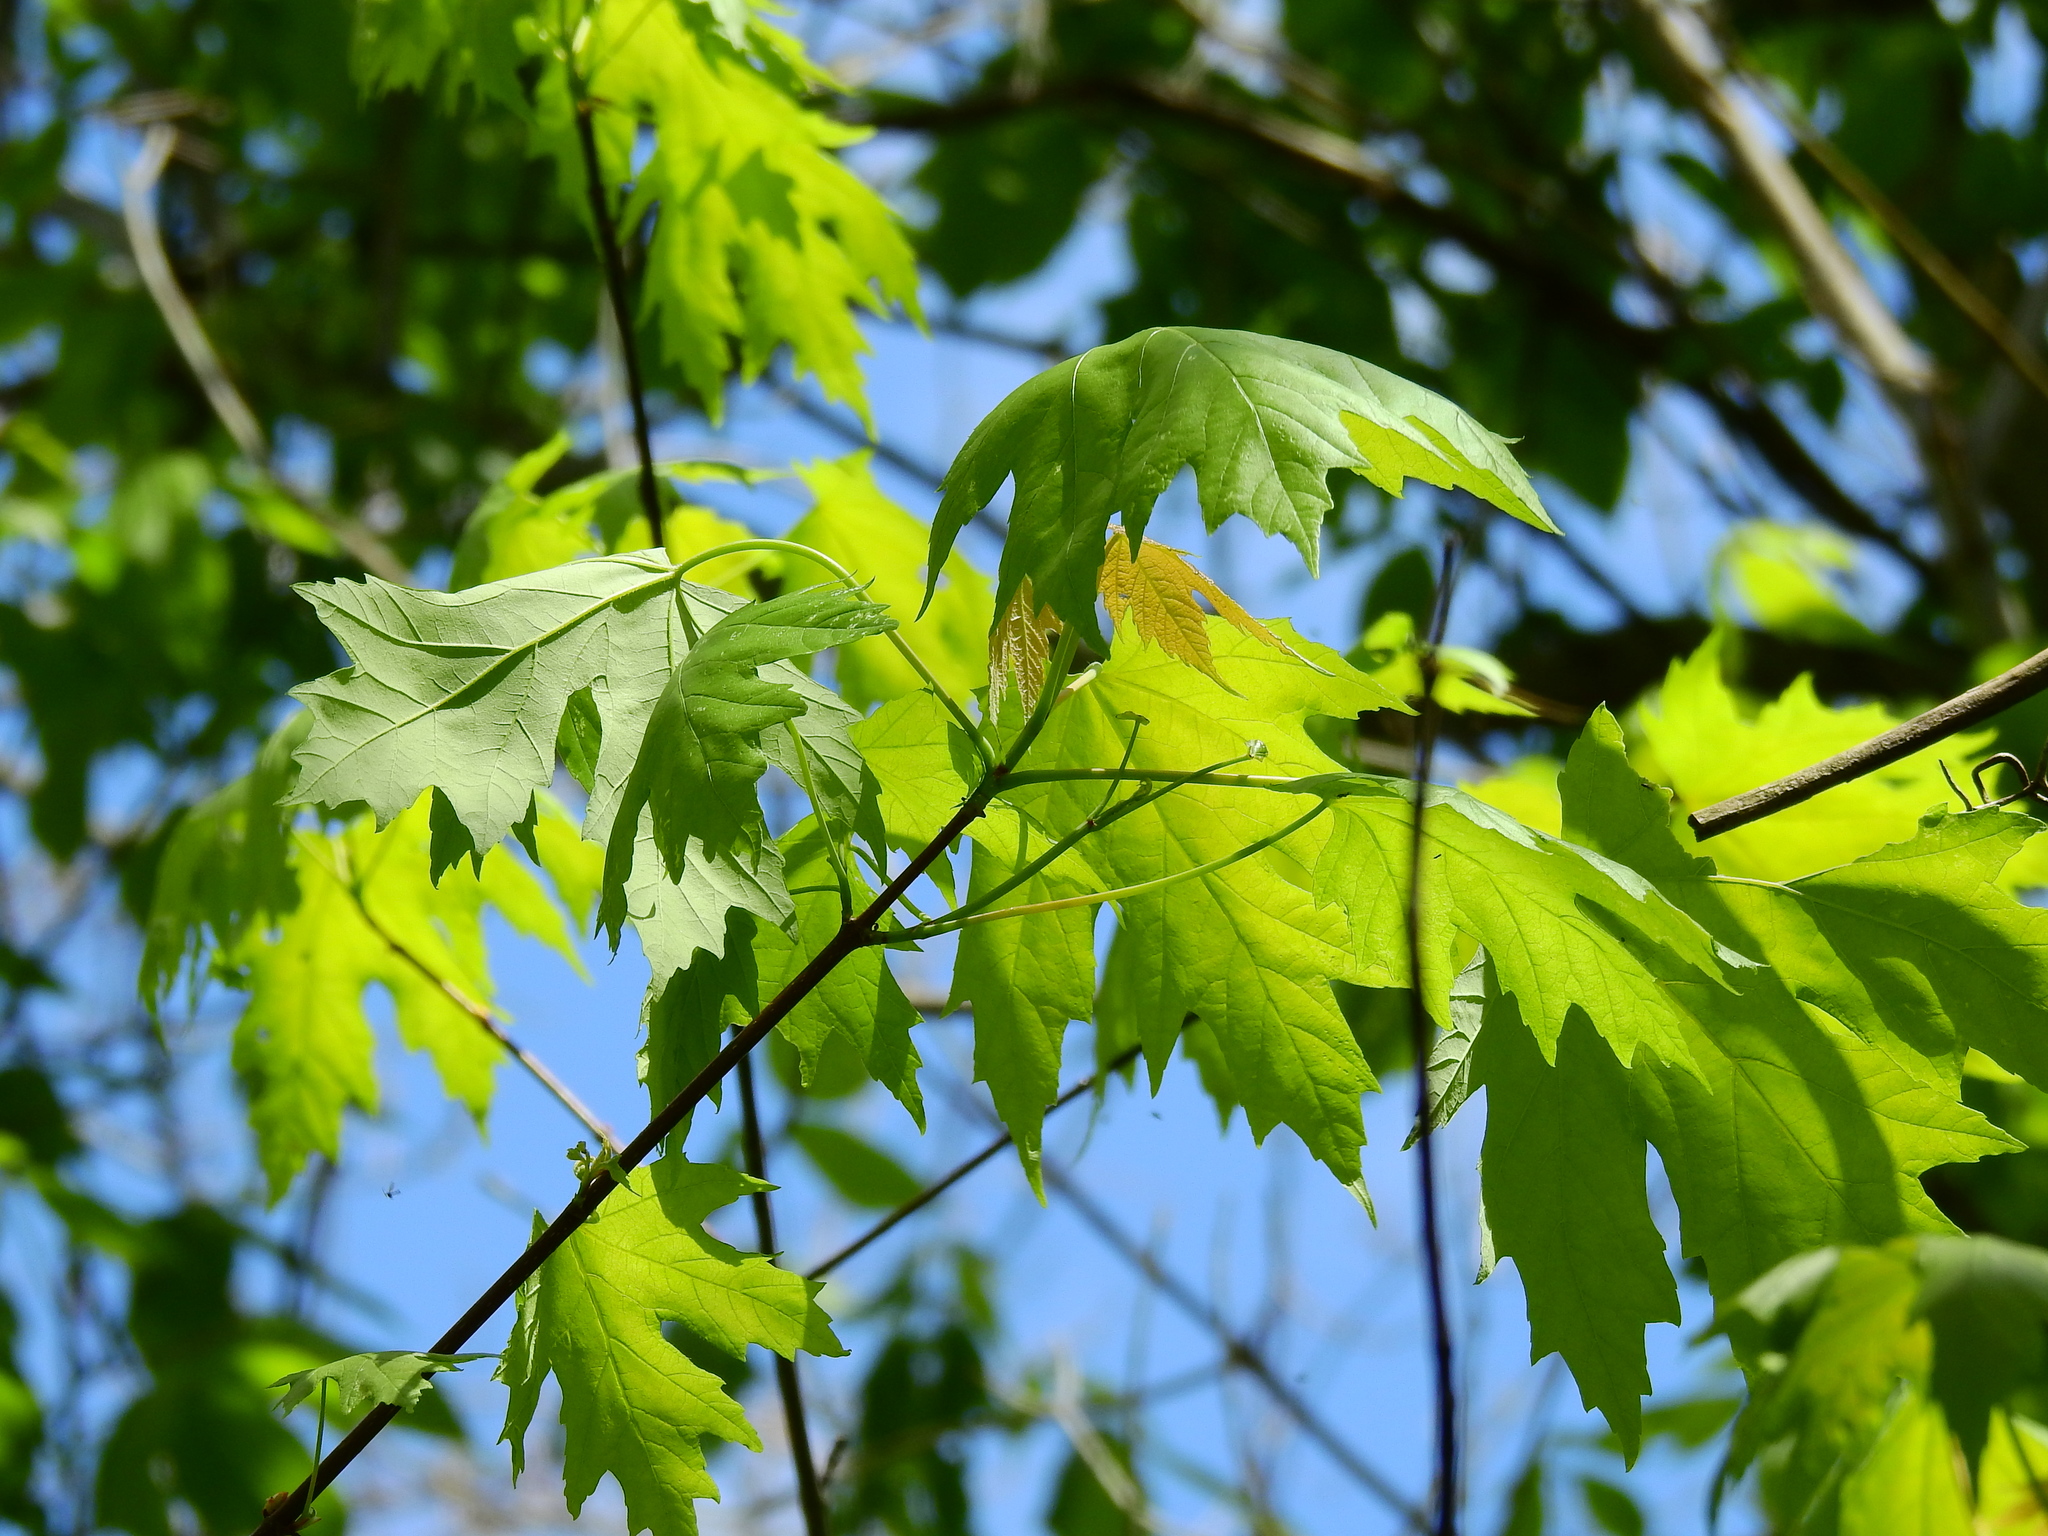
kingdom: Plantae
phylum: Tracheophyta
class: Magnoliopsida
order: Sapindales
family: Sapindaceae
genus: Acer
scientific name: Acer saccharinum
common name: Silver maple
